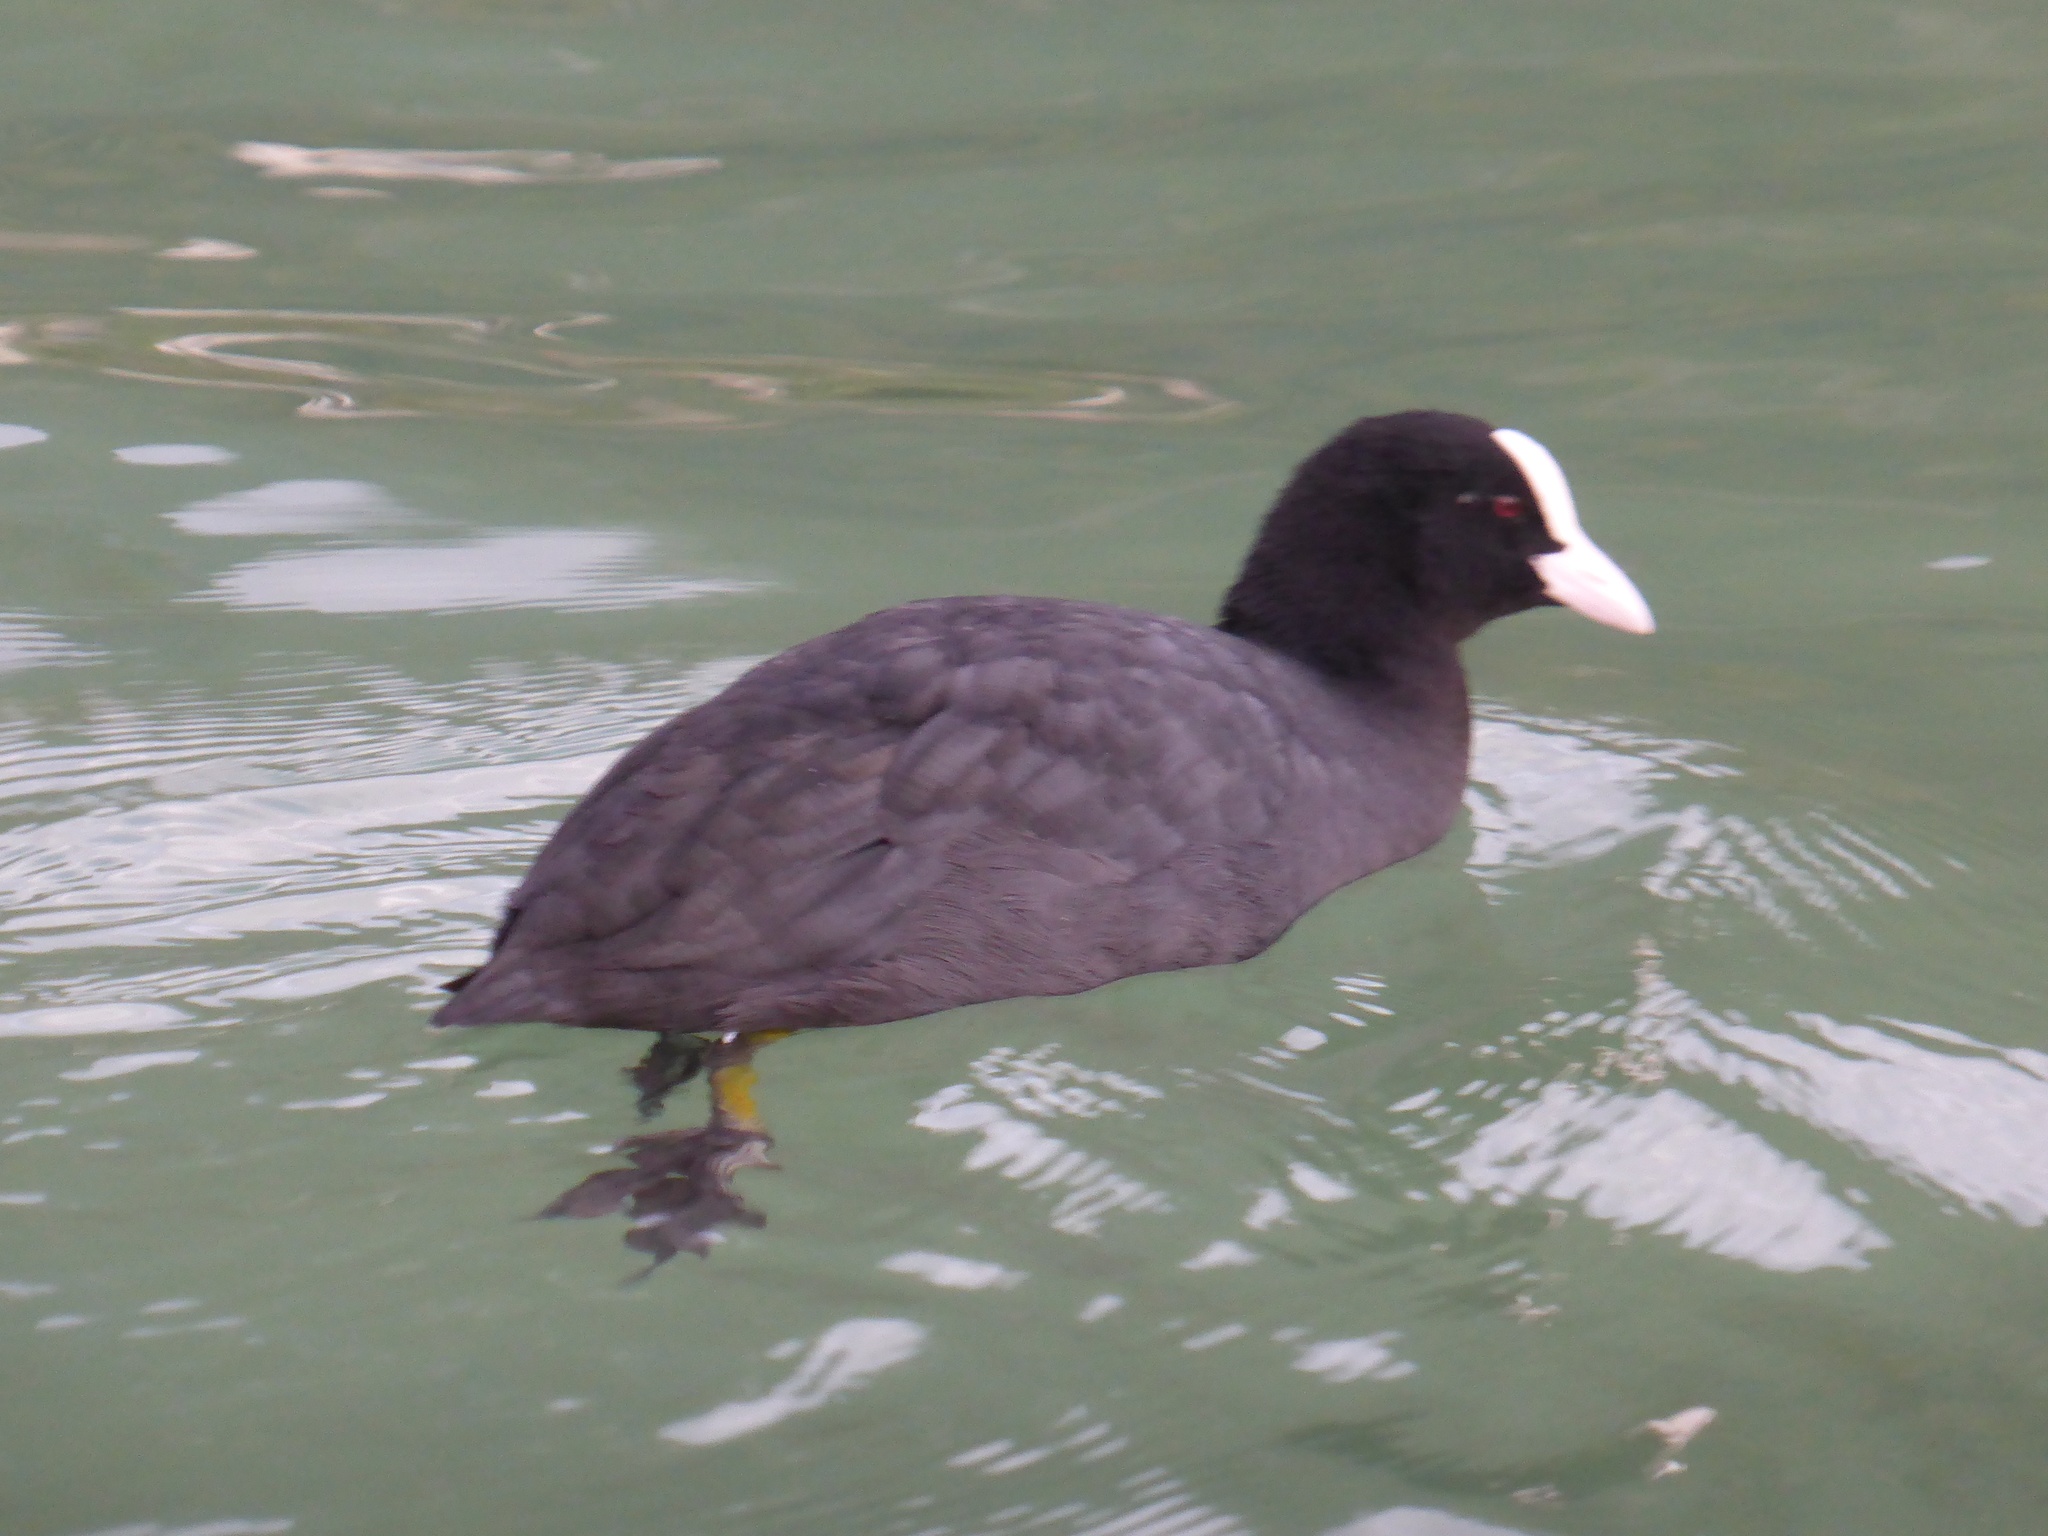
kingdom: Animalia
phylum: Chordata
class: Aves
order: Gruiformes
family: Rallidae
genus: Fulica
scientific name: Fulica atra
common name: Eurasian coot
